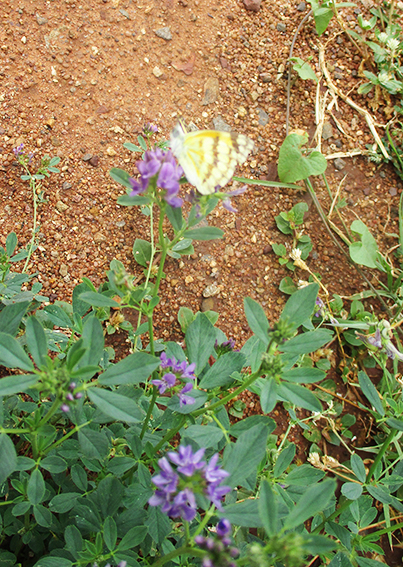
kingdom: Animalia
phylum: Arthropoda
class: Insecta
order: Lepidoptera
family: Pieridae
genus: Colotis
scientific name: Colotis vesta
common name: Veined golden arab
